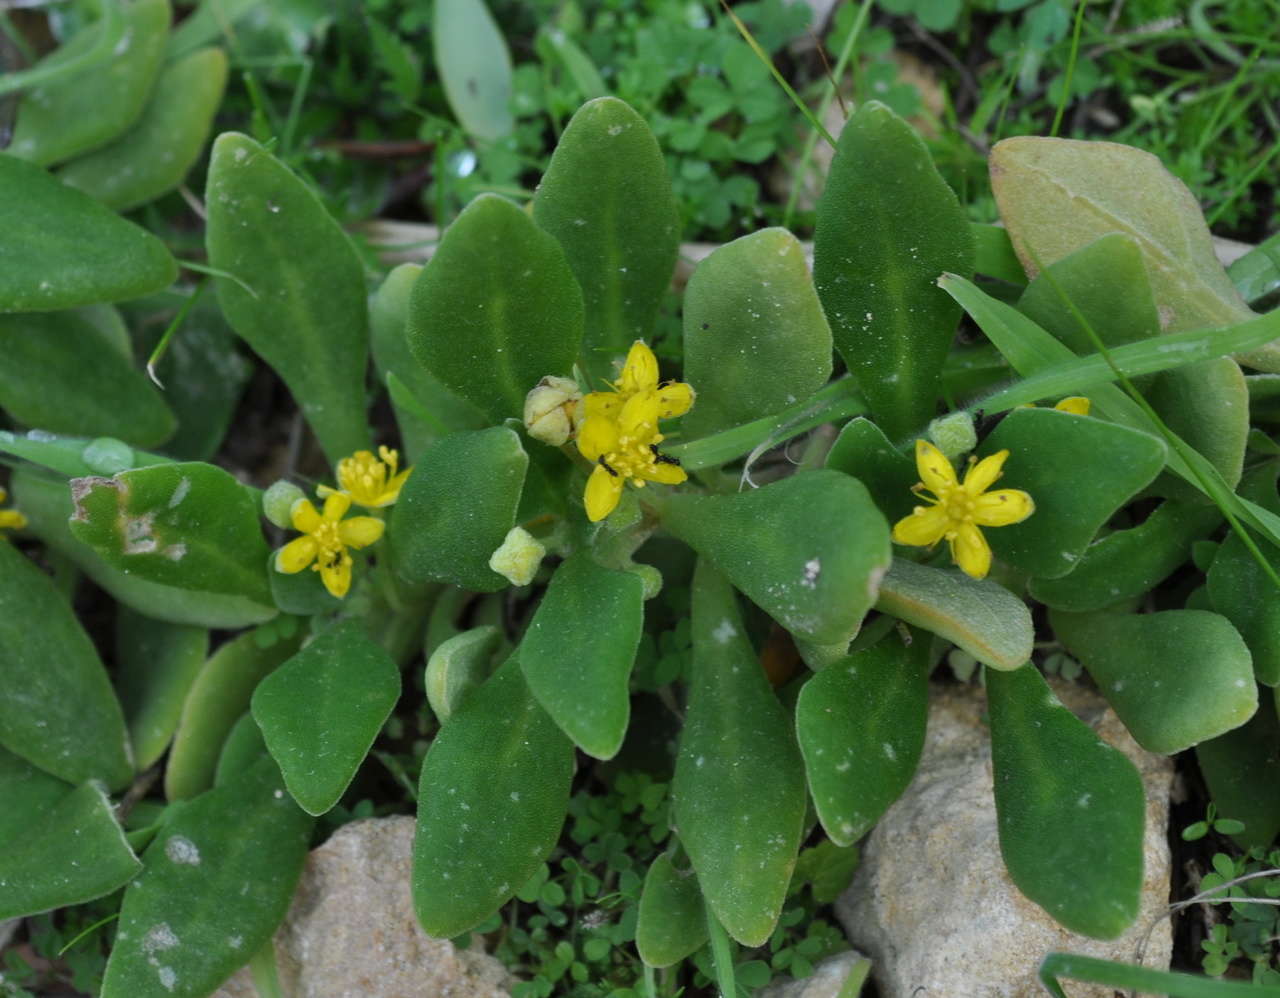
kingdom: Plantae
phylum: Tracheophyta
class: Magnoliopsida
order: Caryophyllales
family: Aizoaceae
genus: Tetragonia
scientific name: Tetragonia implexicoma
